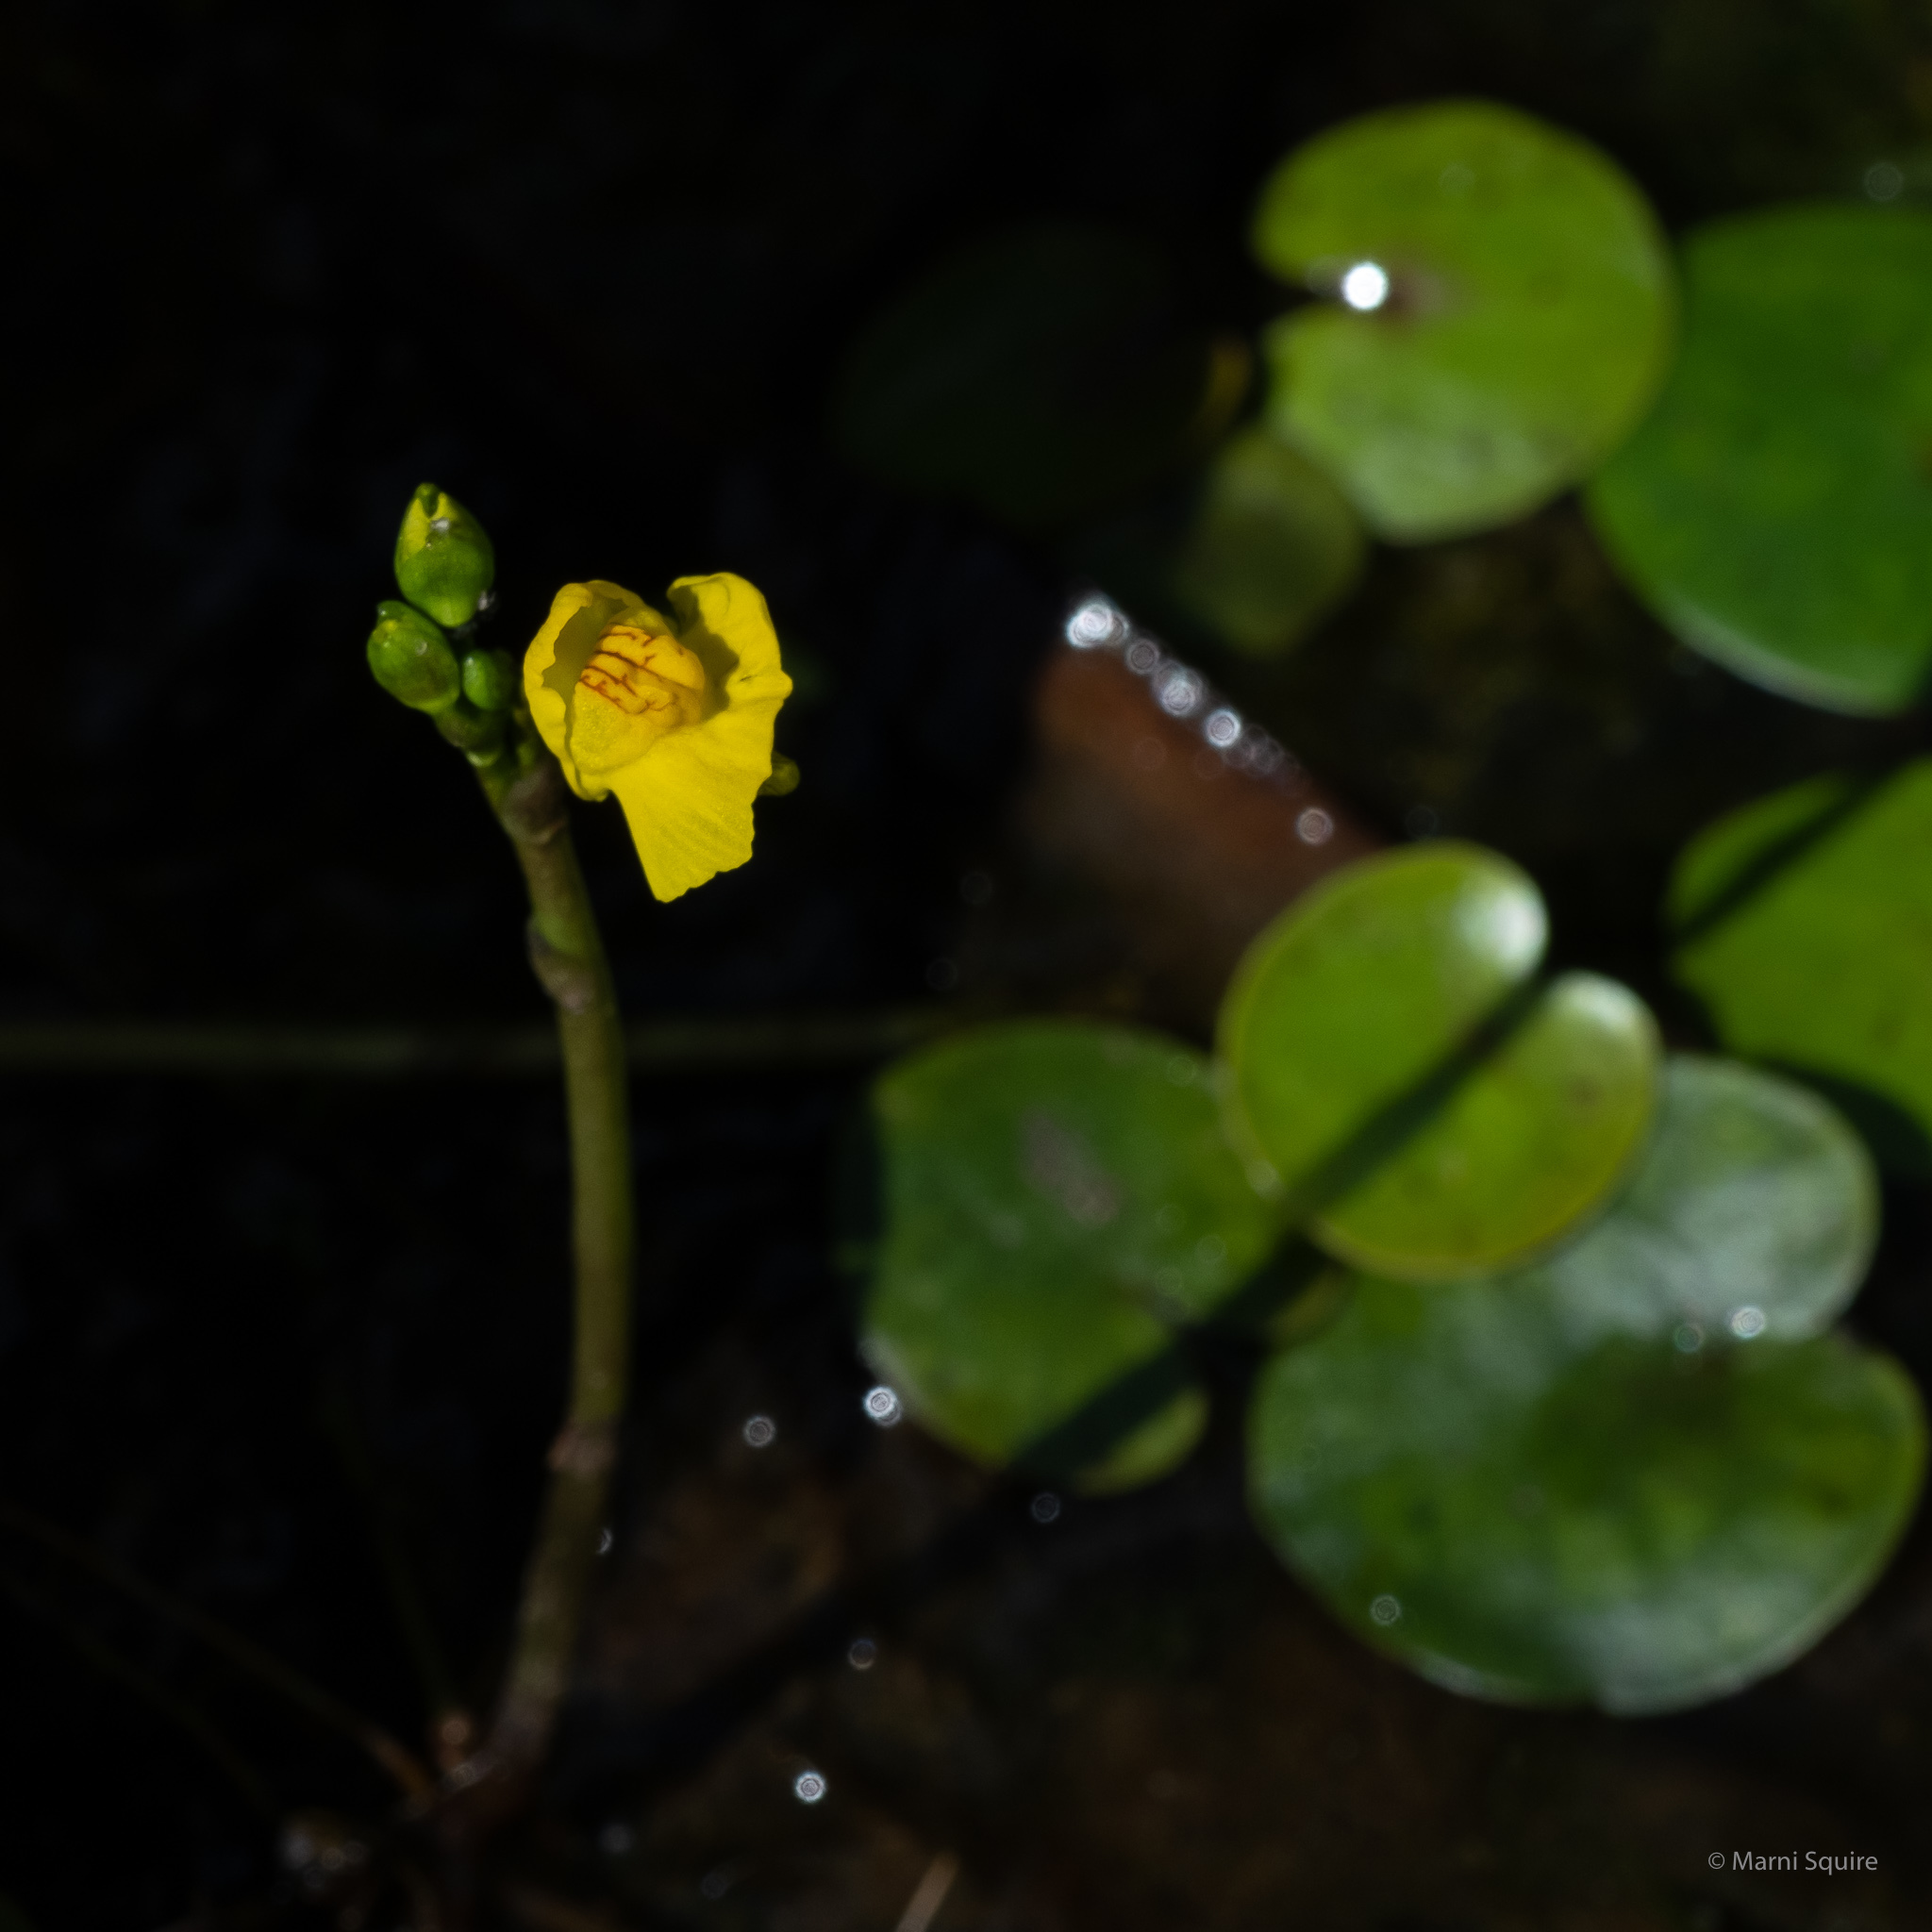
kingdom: Plantae
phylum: Tracheophyta
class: Magnoliopsida
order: Lamiales
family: Lentibulariaceae
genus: Utricularia
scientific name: Utricularia macrorhiza
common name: Common bladderwort
